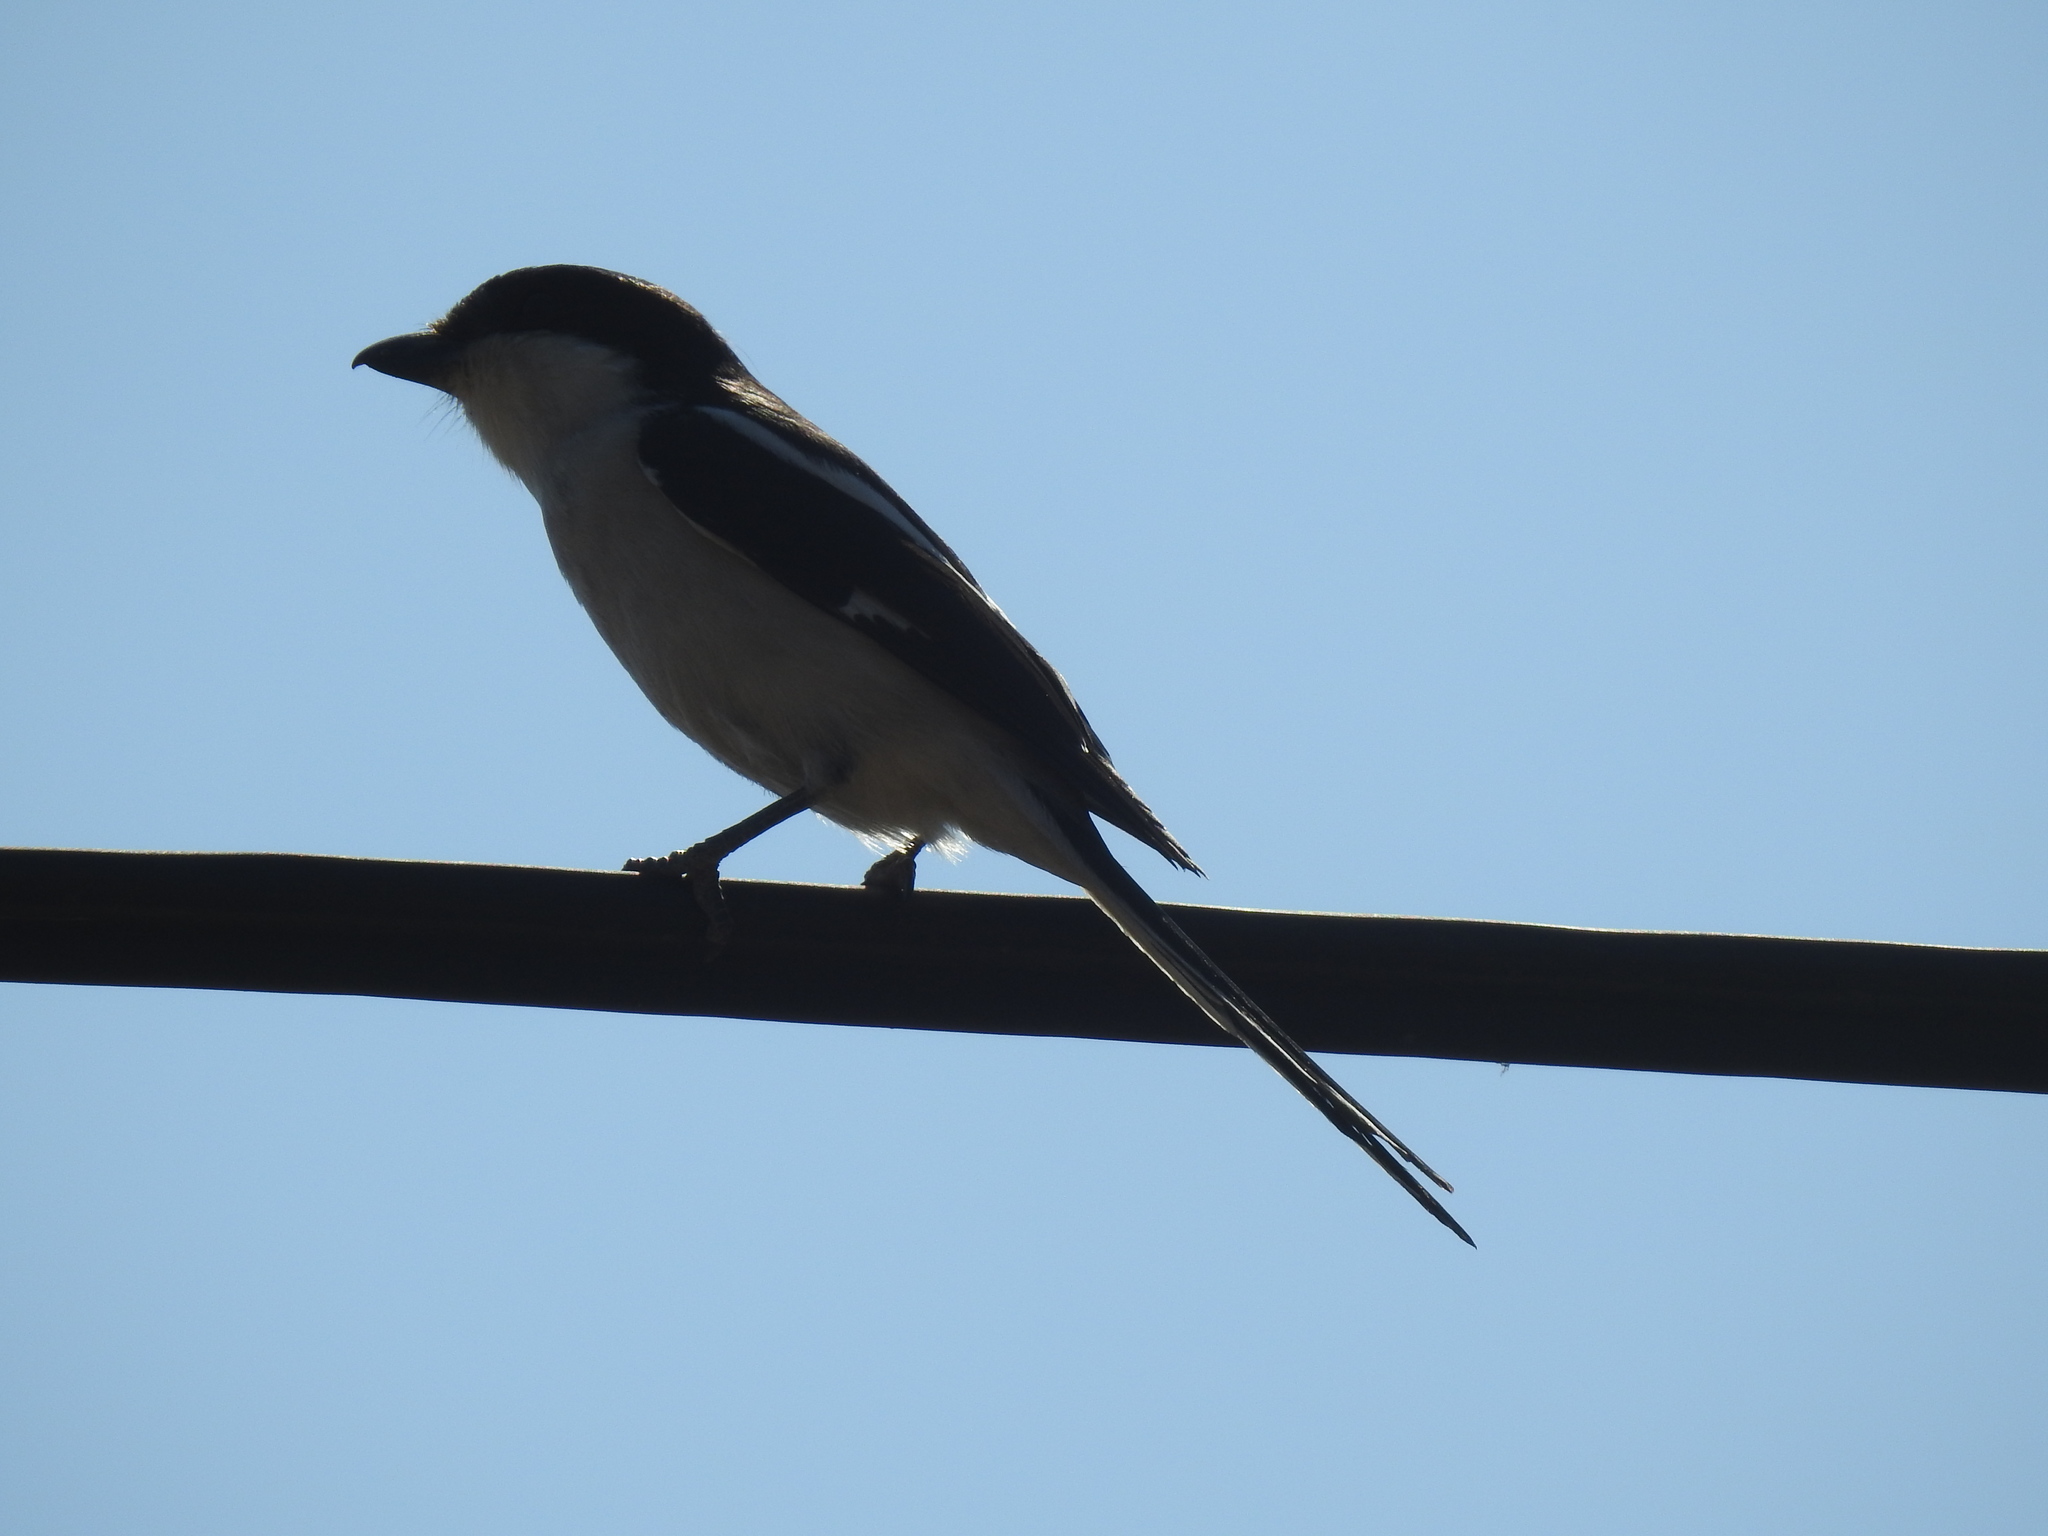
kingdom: Animalia
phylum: Chordata
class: Aves
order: Passeriformes
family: Laniidae
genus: Lanius
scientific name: Lanius collaris
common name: Southern fiscal
